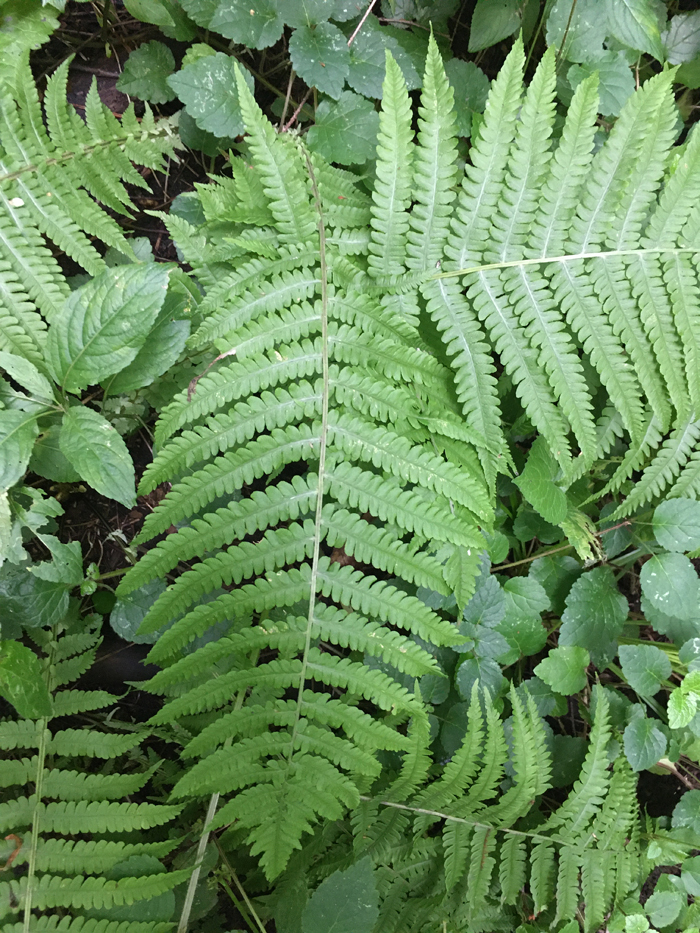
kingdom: Plantae
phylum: Tracheophyta
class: Polypodiopsida
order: Polypodiales
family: Dryopteridaceae
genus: Dryopteris
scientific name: Dryopteris filix-mas
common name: Male fern
